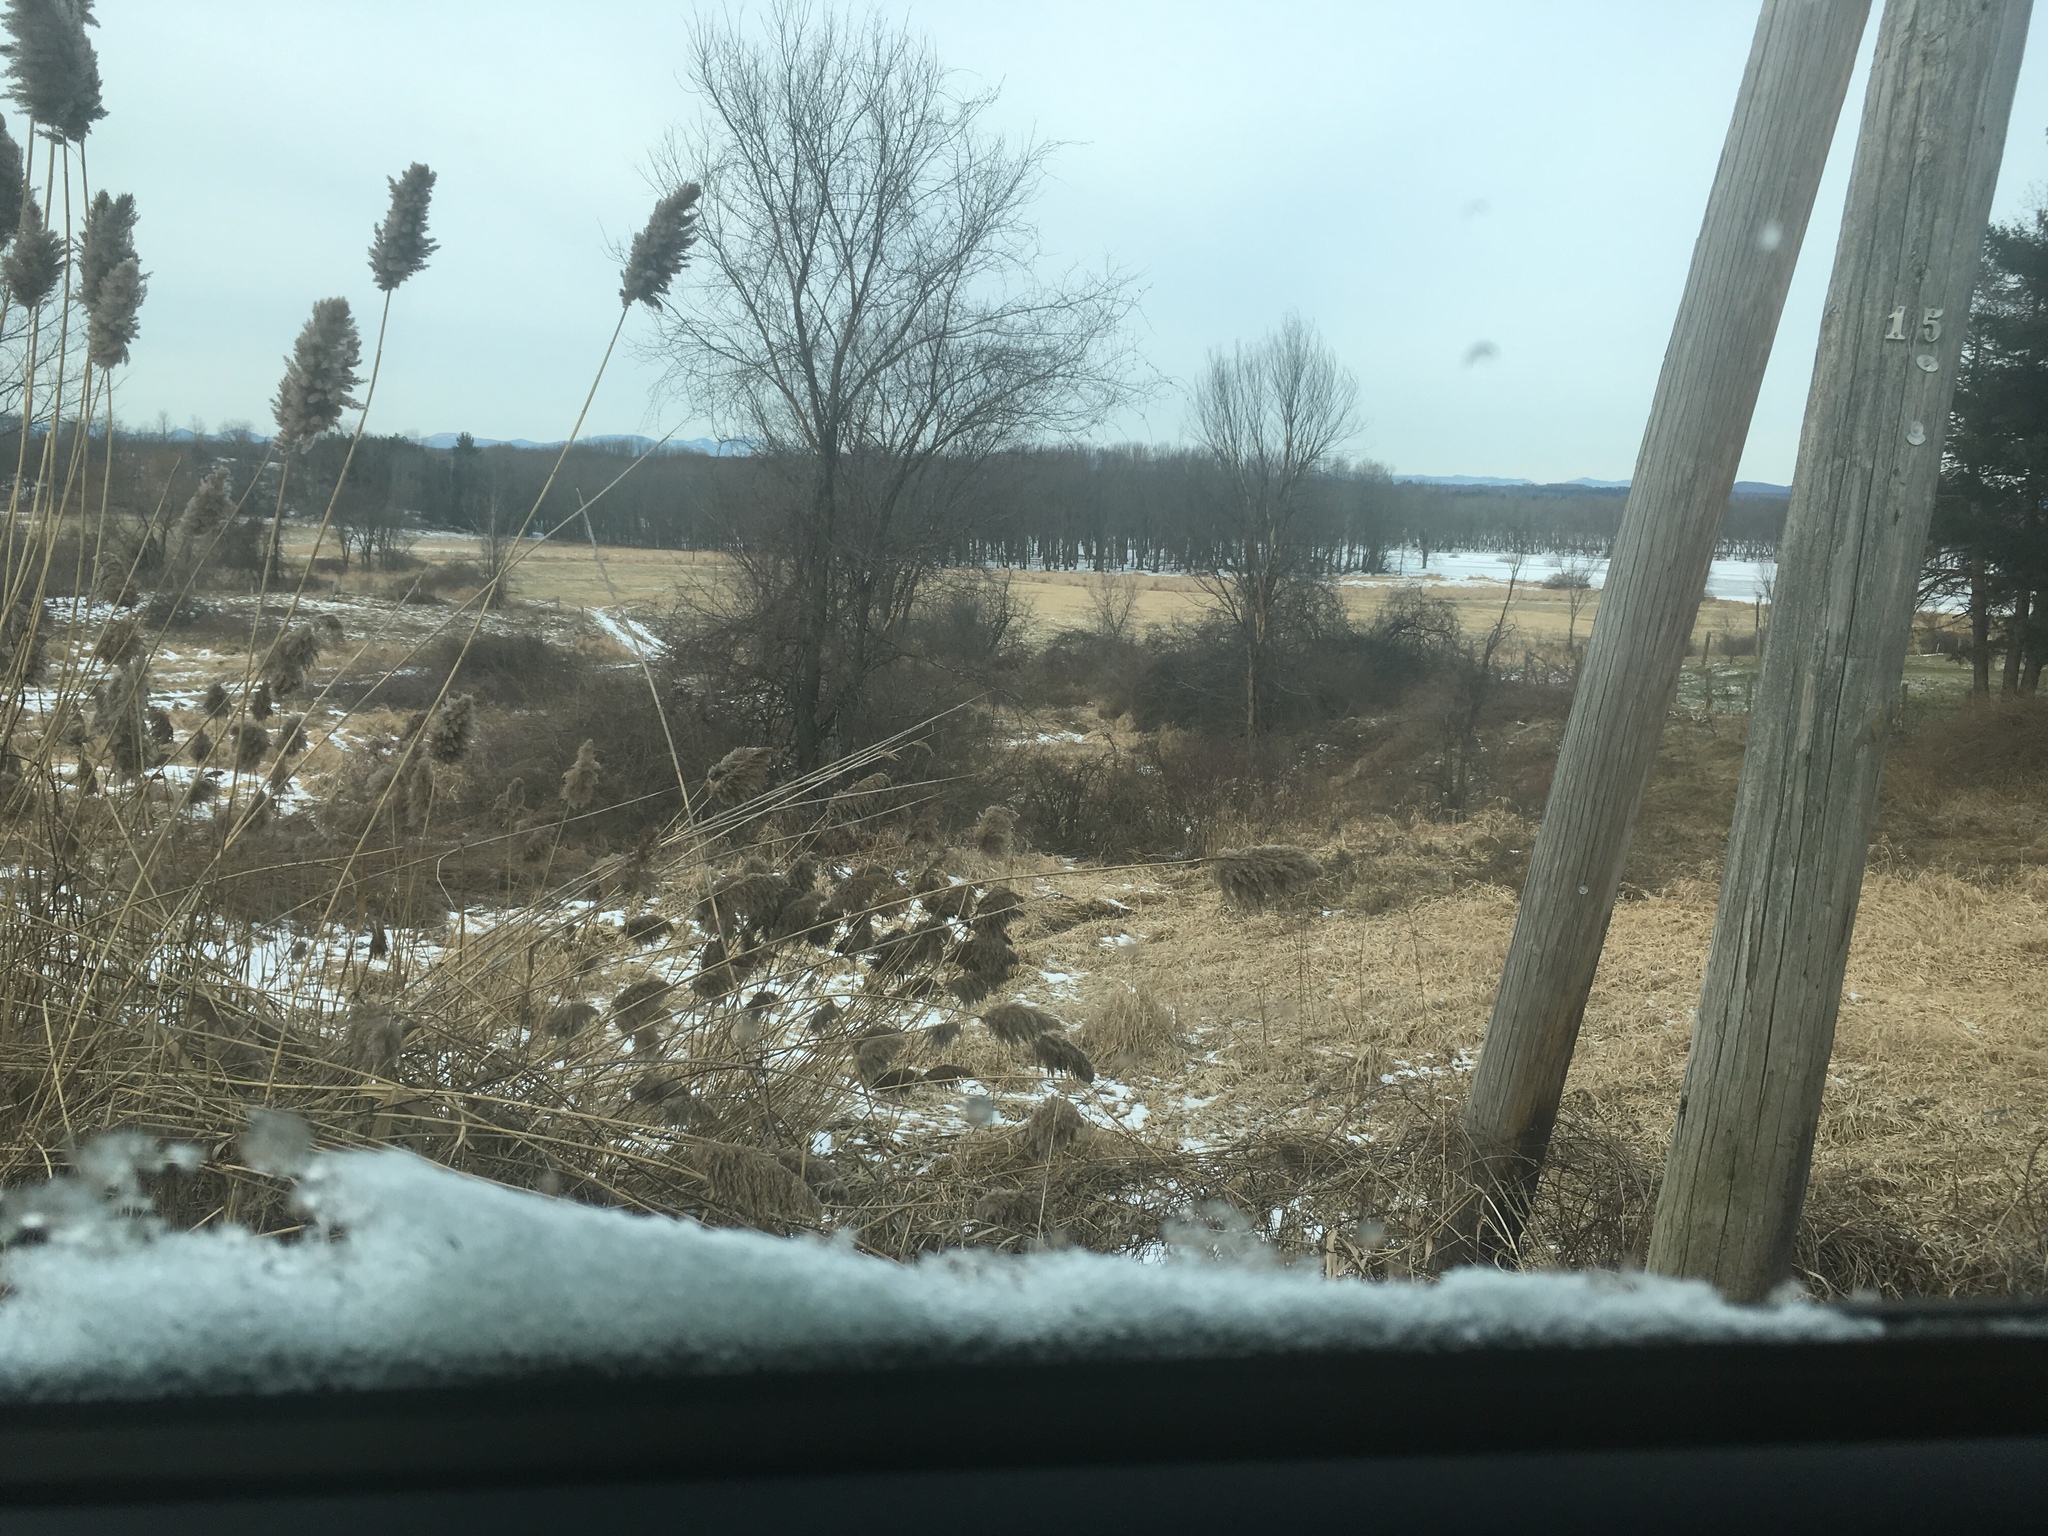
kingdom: Plantae
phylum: Tracheophyta
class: Liliopsida
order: Poales
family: Poaceae
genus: Phragmites
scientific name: Phragmites australis
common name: Common reed
